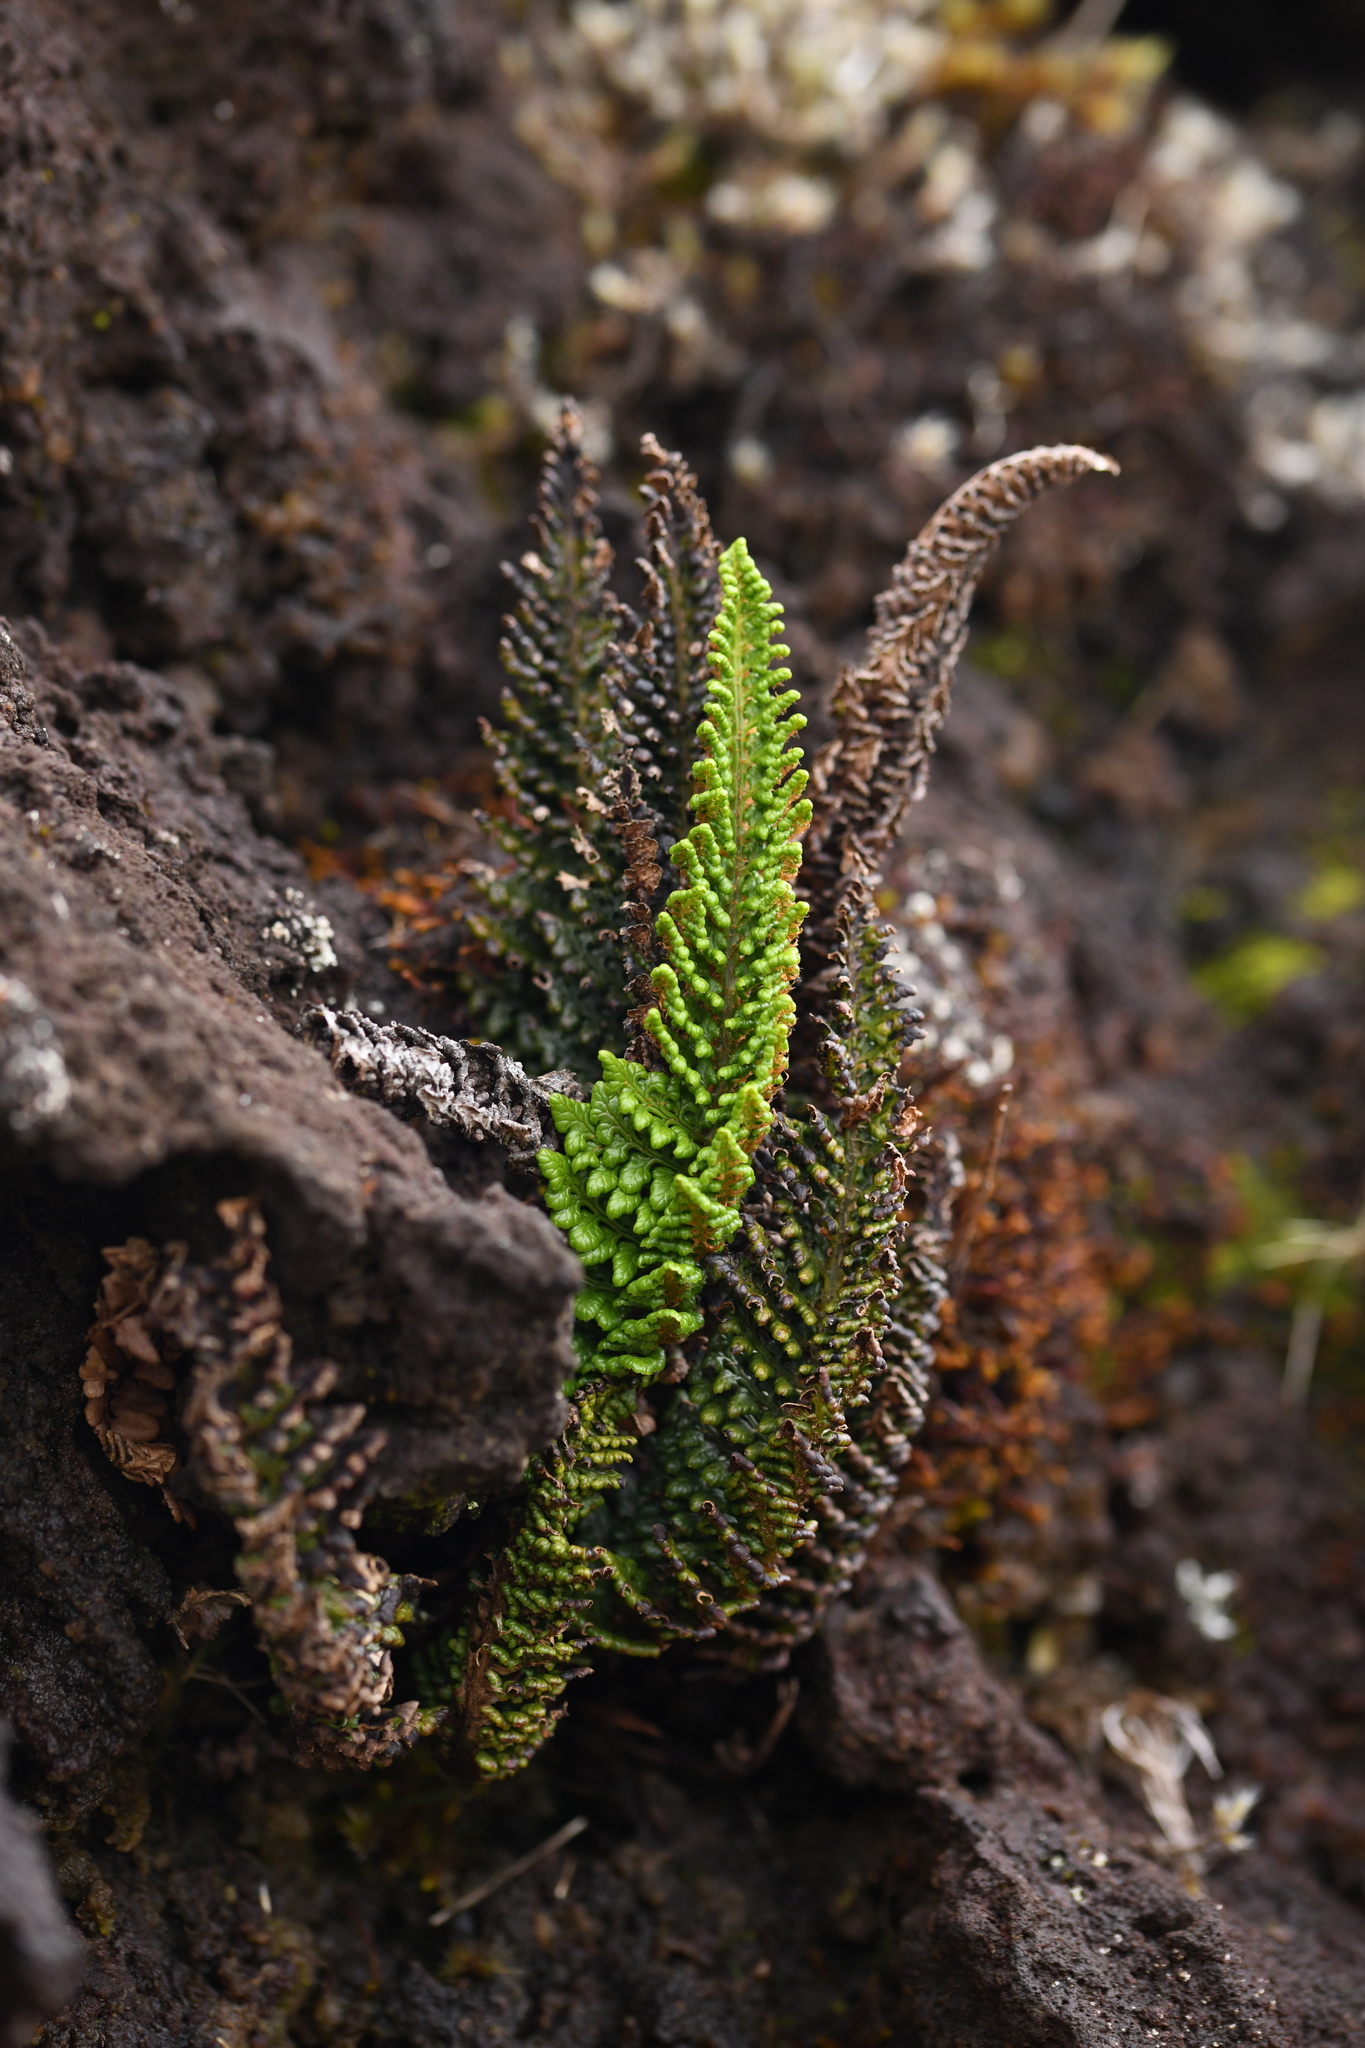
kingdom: Plantae
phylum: Tracheophyta
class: Polypodiopsida
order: Polypodiales
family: Dryopteridaceae
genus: Polystichum
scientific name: Polystichum marionense
